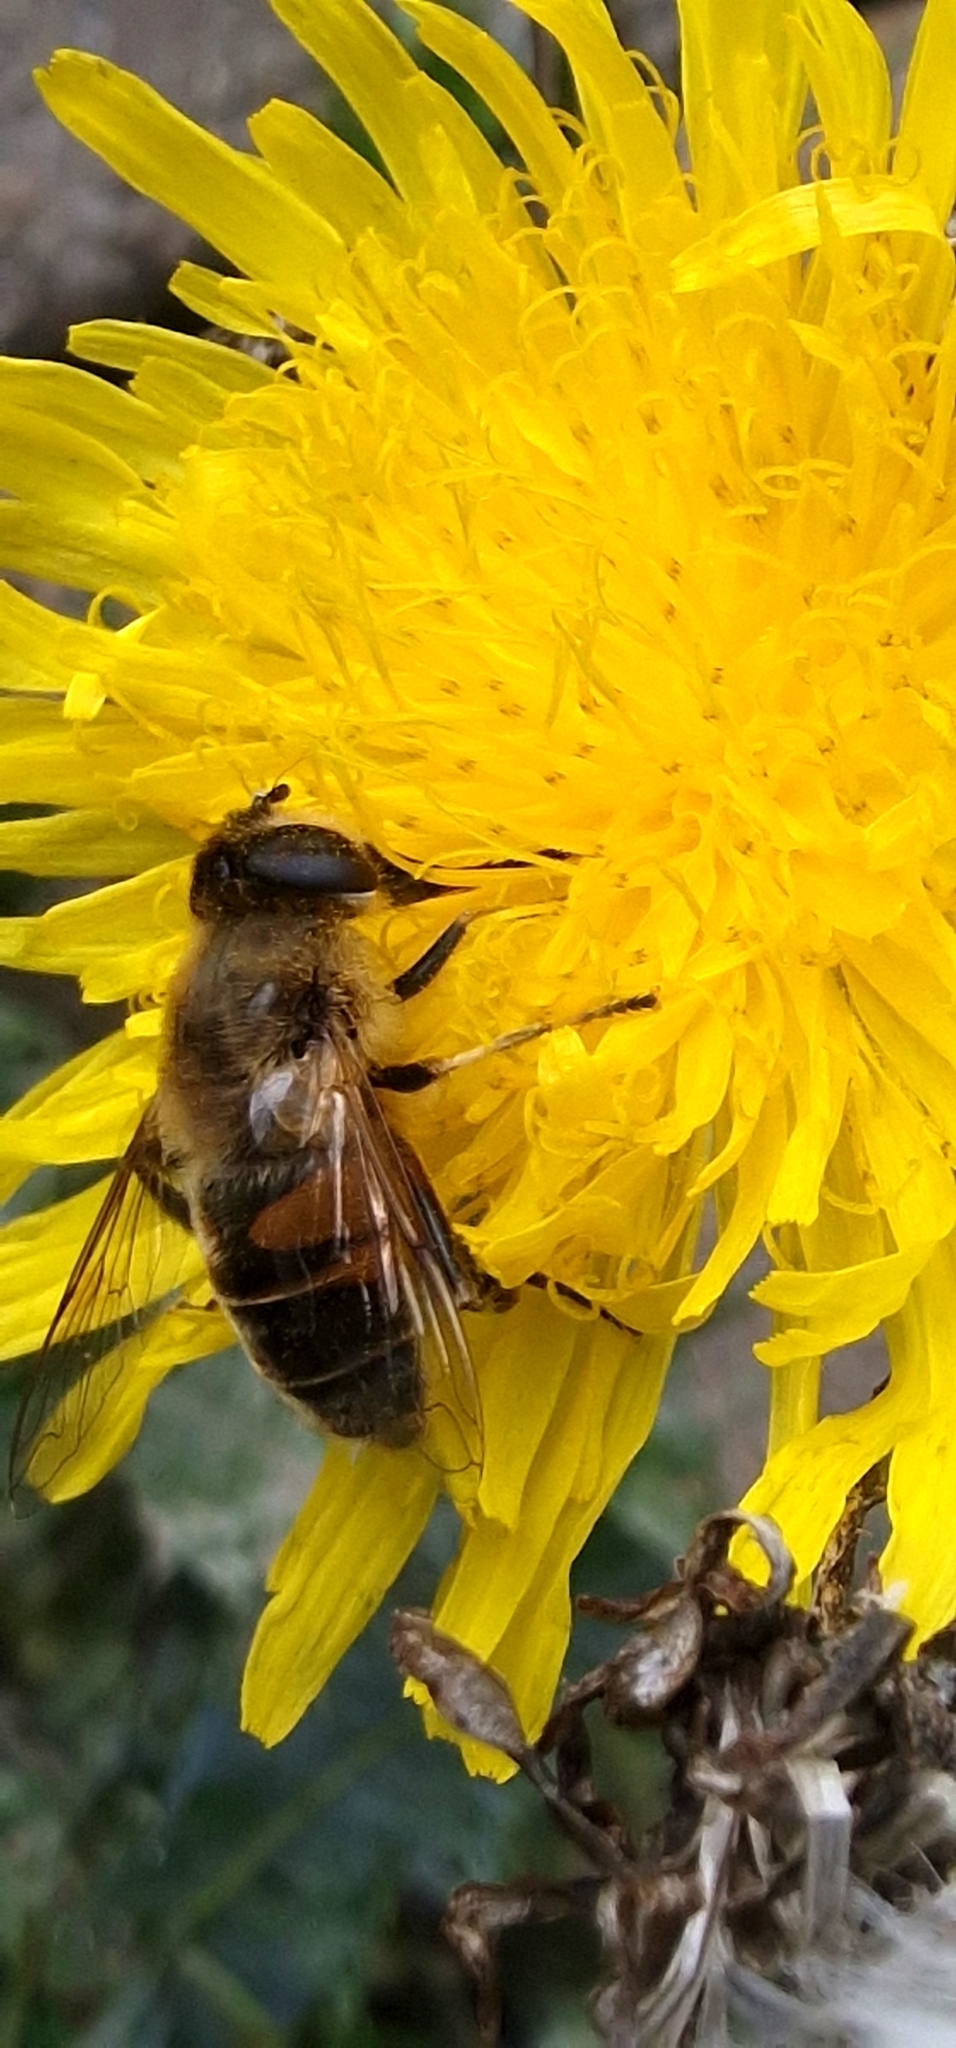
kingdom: Animalia
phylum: Arthropoda
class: Insecta
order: Diptera
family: Syrphidae
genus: Eristalis
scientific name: Eristalis tenax
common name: Drone fly
